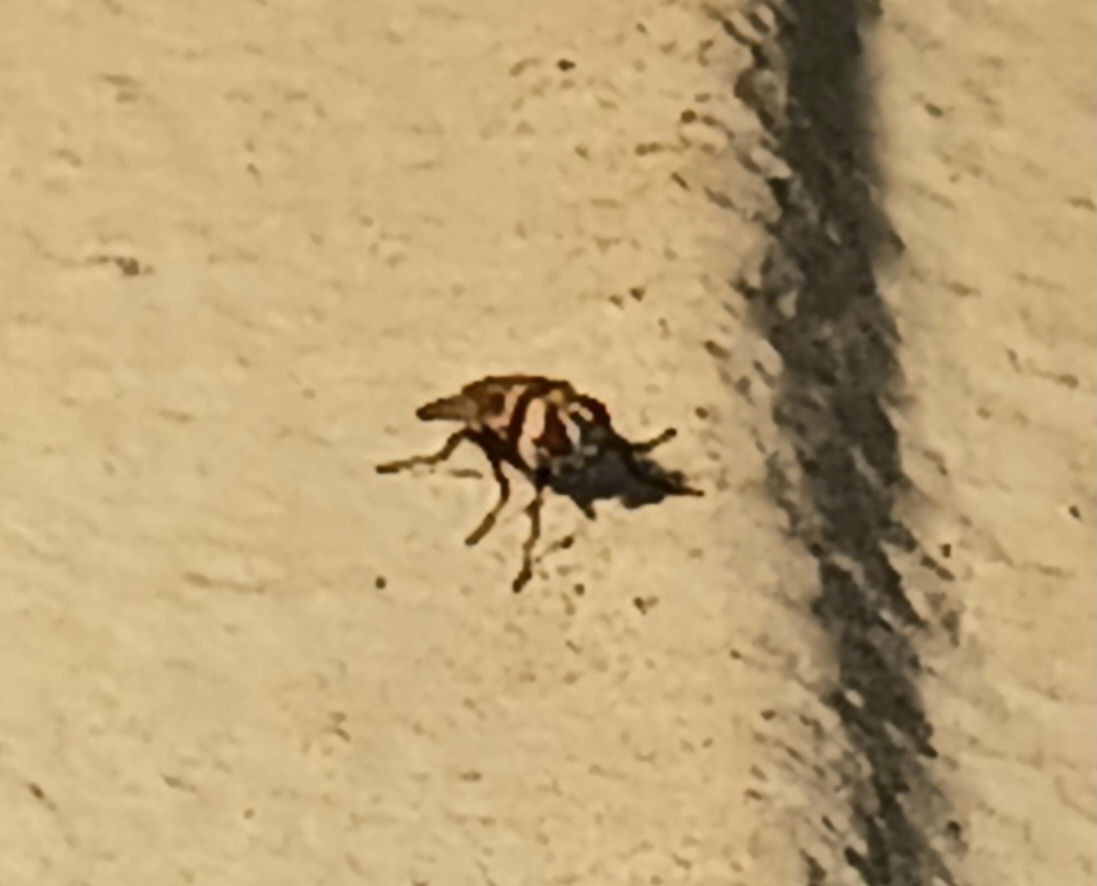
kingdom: Animalia
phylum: Arthropoda
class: Insecta
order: Diptera
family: Anthomyiidae
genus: Anthomyia
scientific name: Anthomyia illocata
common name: Fly
